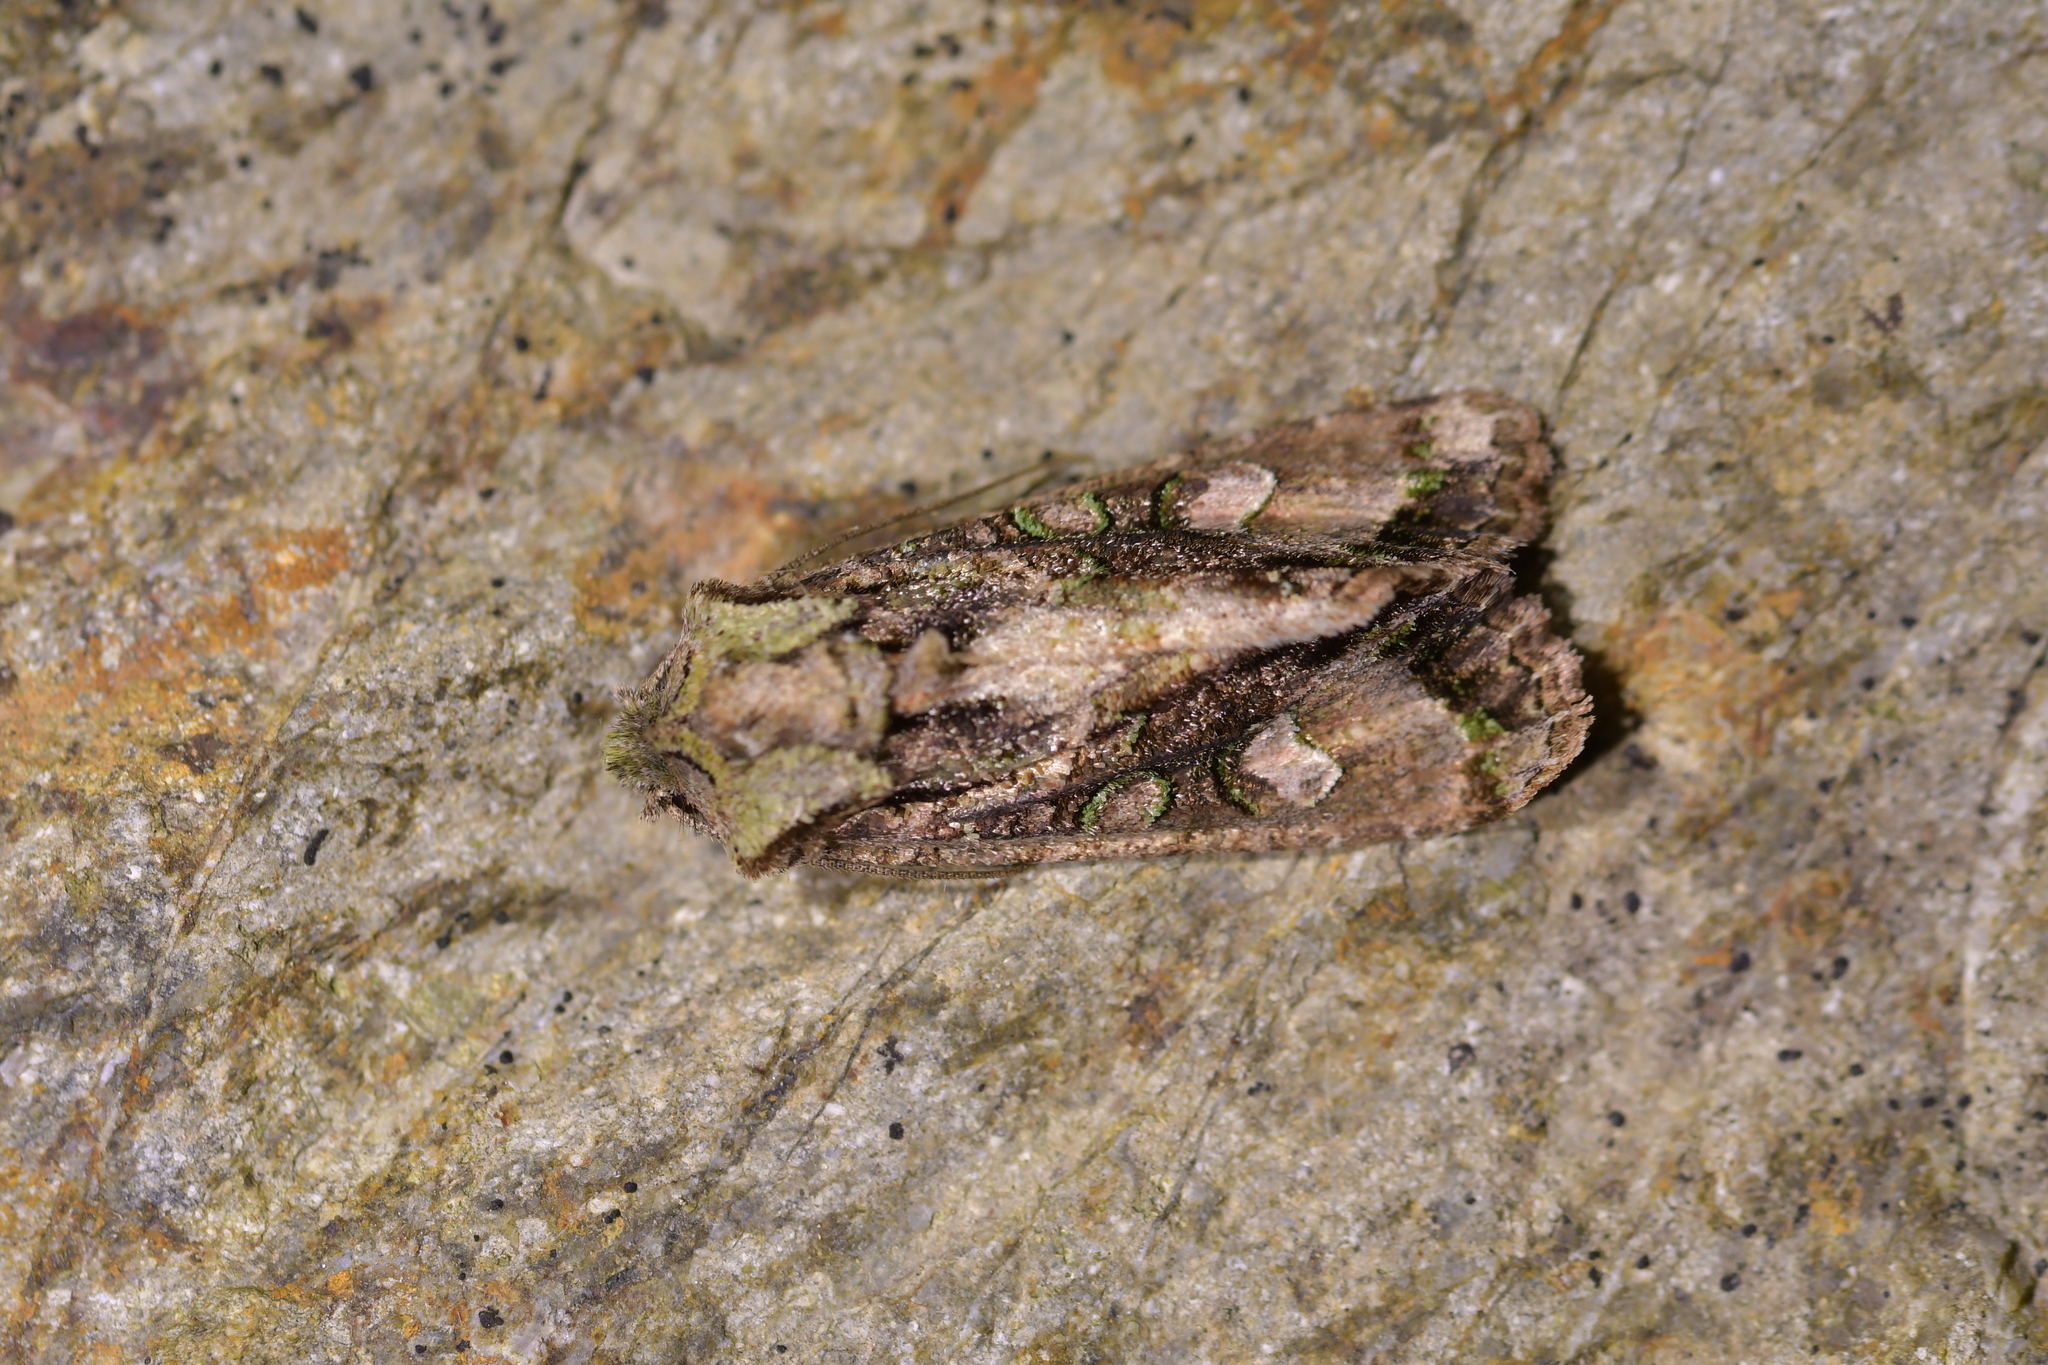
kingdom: Animalia
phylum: Arthropoda
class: Insecta
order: Lepidoptera
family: Noctuidae
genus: Ichneutica
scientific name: Ichneutica insignis
